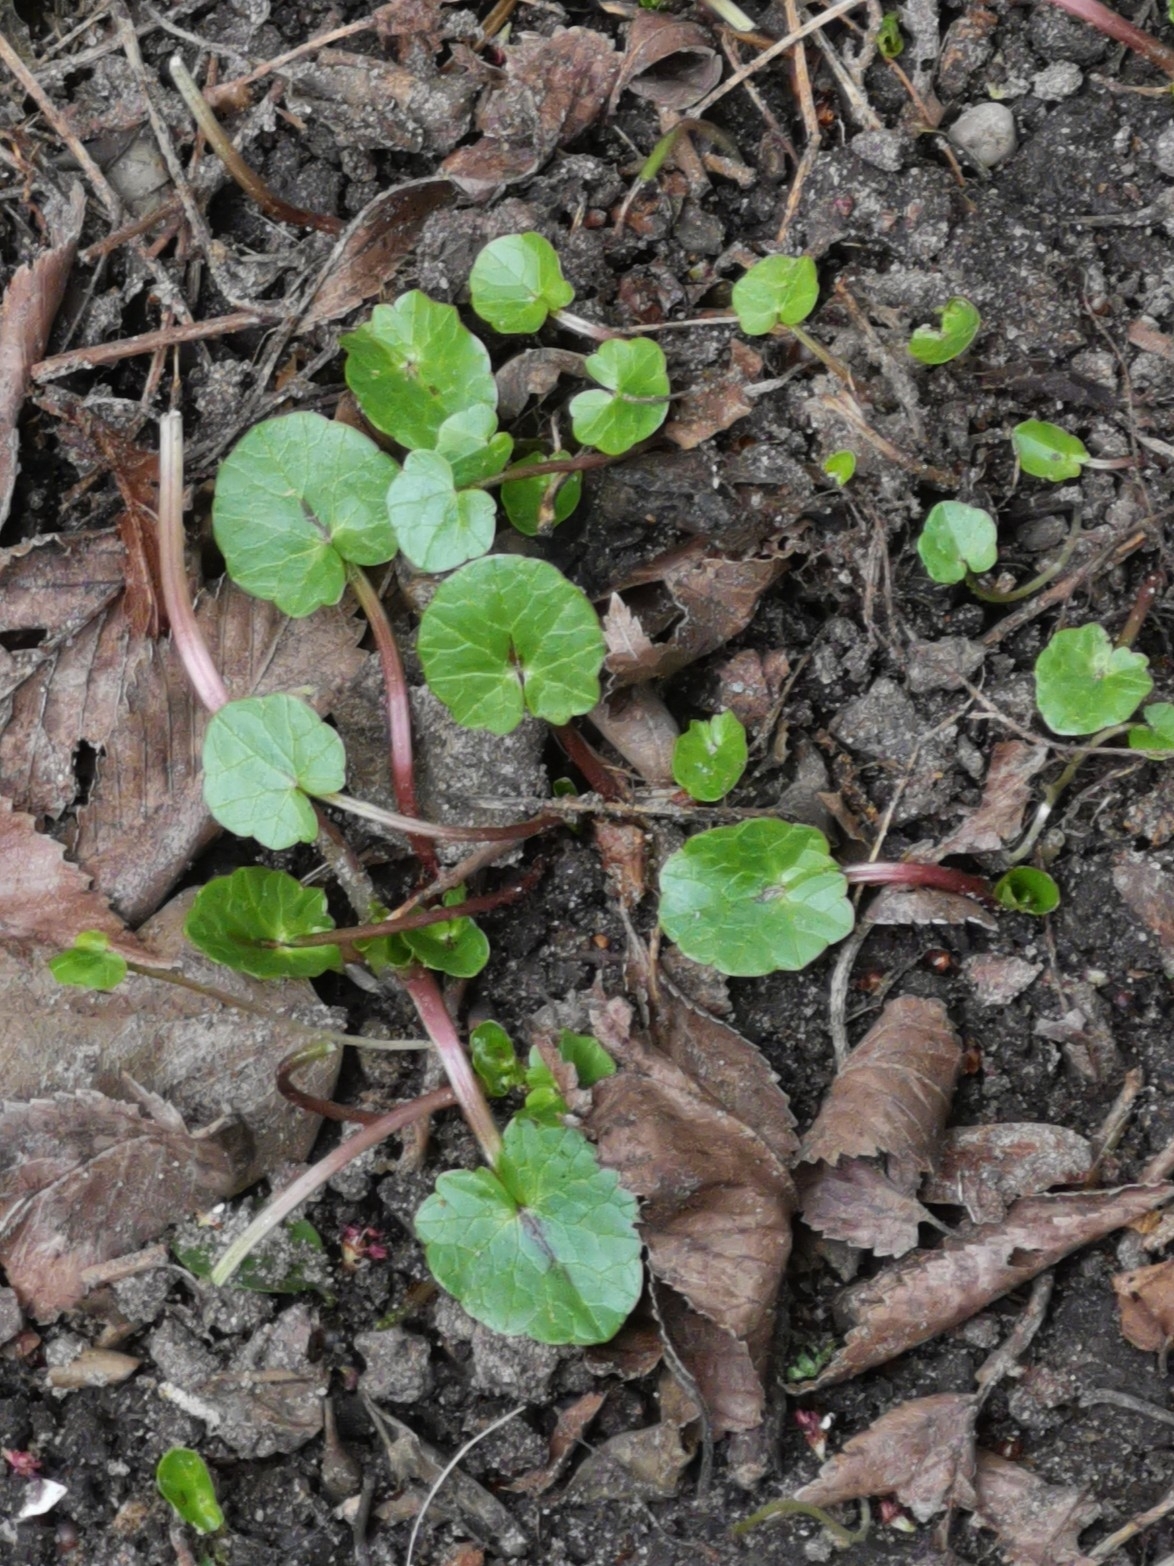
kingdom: Plantae
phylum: Tracheophyta
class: Magnoliopsida
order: Ranunculales
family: Ranunculaceae
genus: Ficaria
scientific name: Ficaria verna
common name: Lesser celandine
